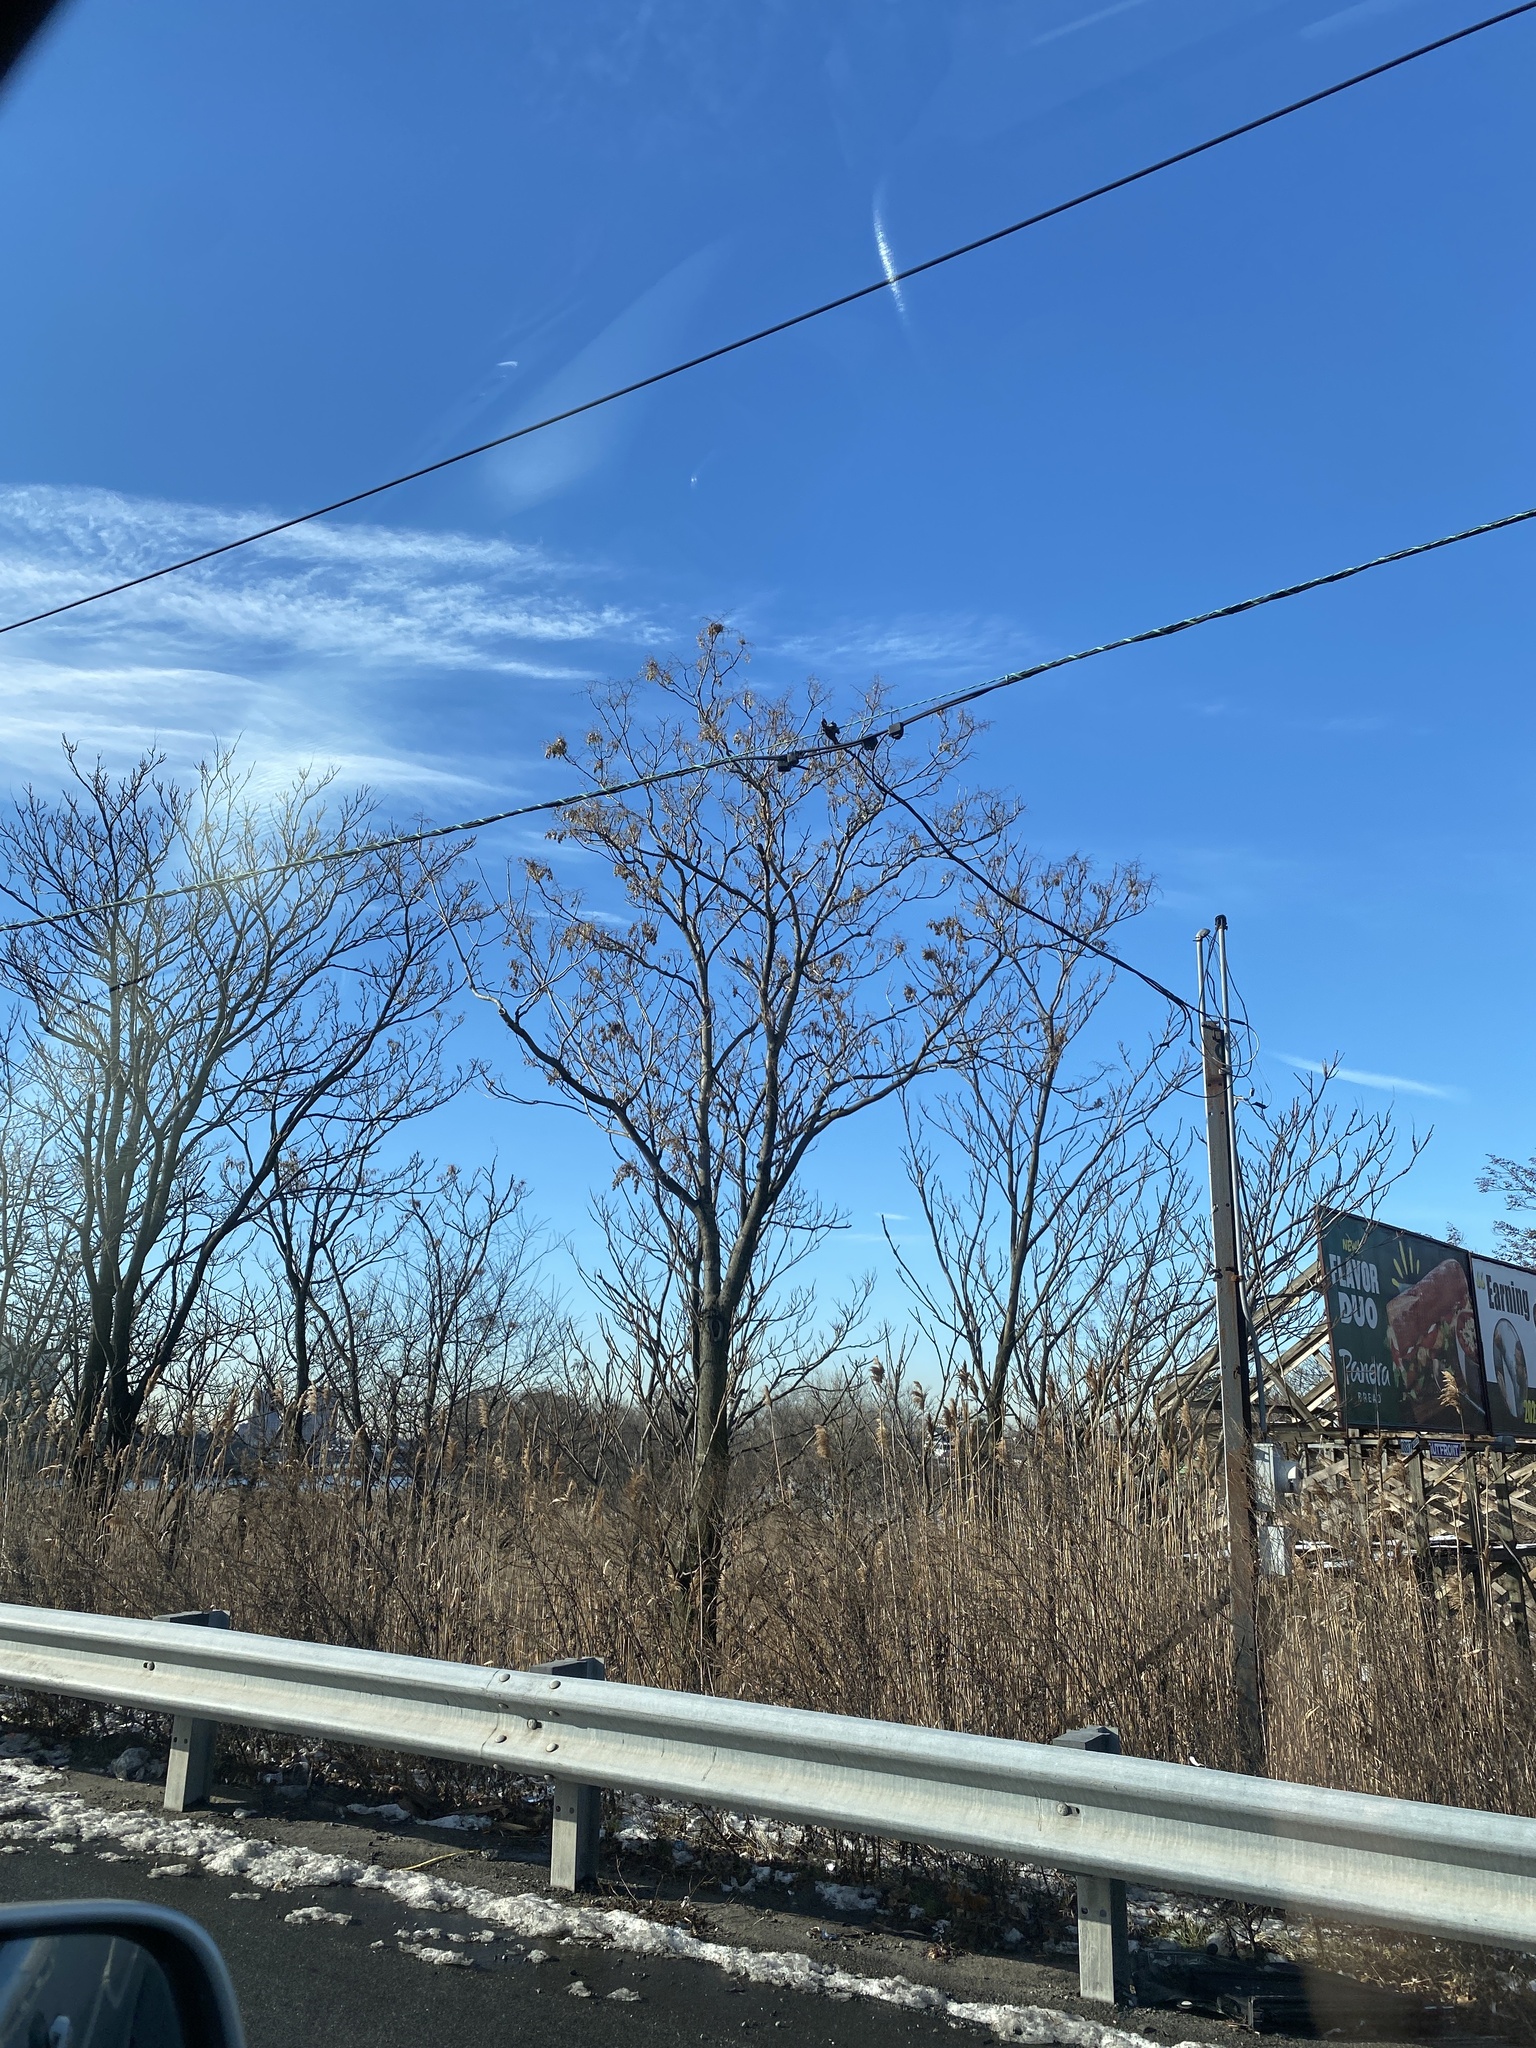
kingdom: Plantae
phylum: Tracheophyta
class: Magnoliopsida
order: Sapindales
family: Simaroubaceae
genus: Ailanthus
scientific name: Ailanthus altissima
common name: Tree-of-heaven
